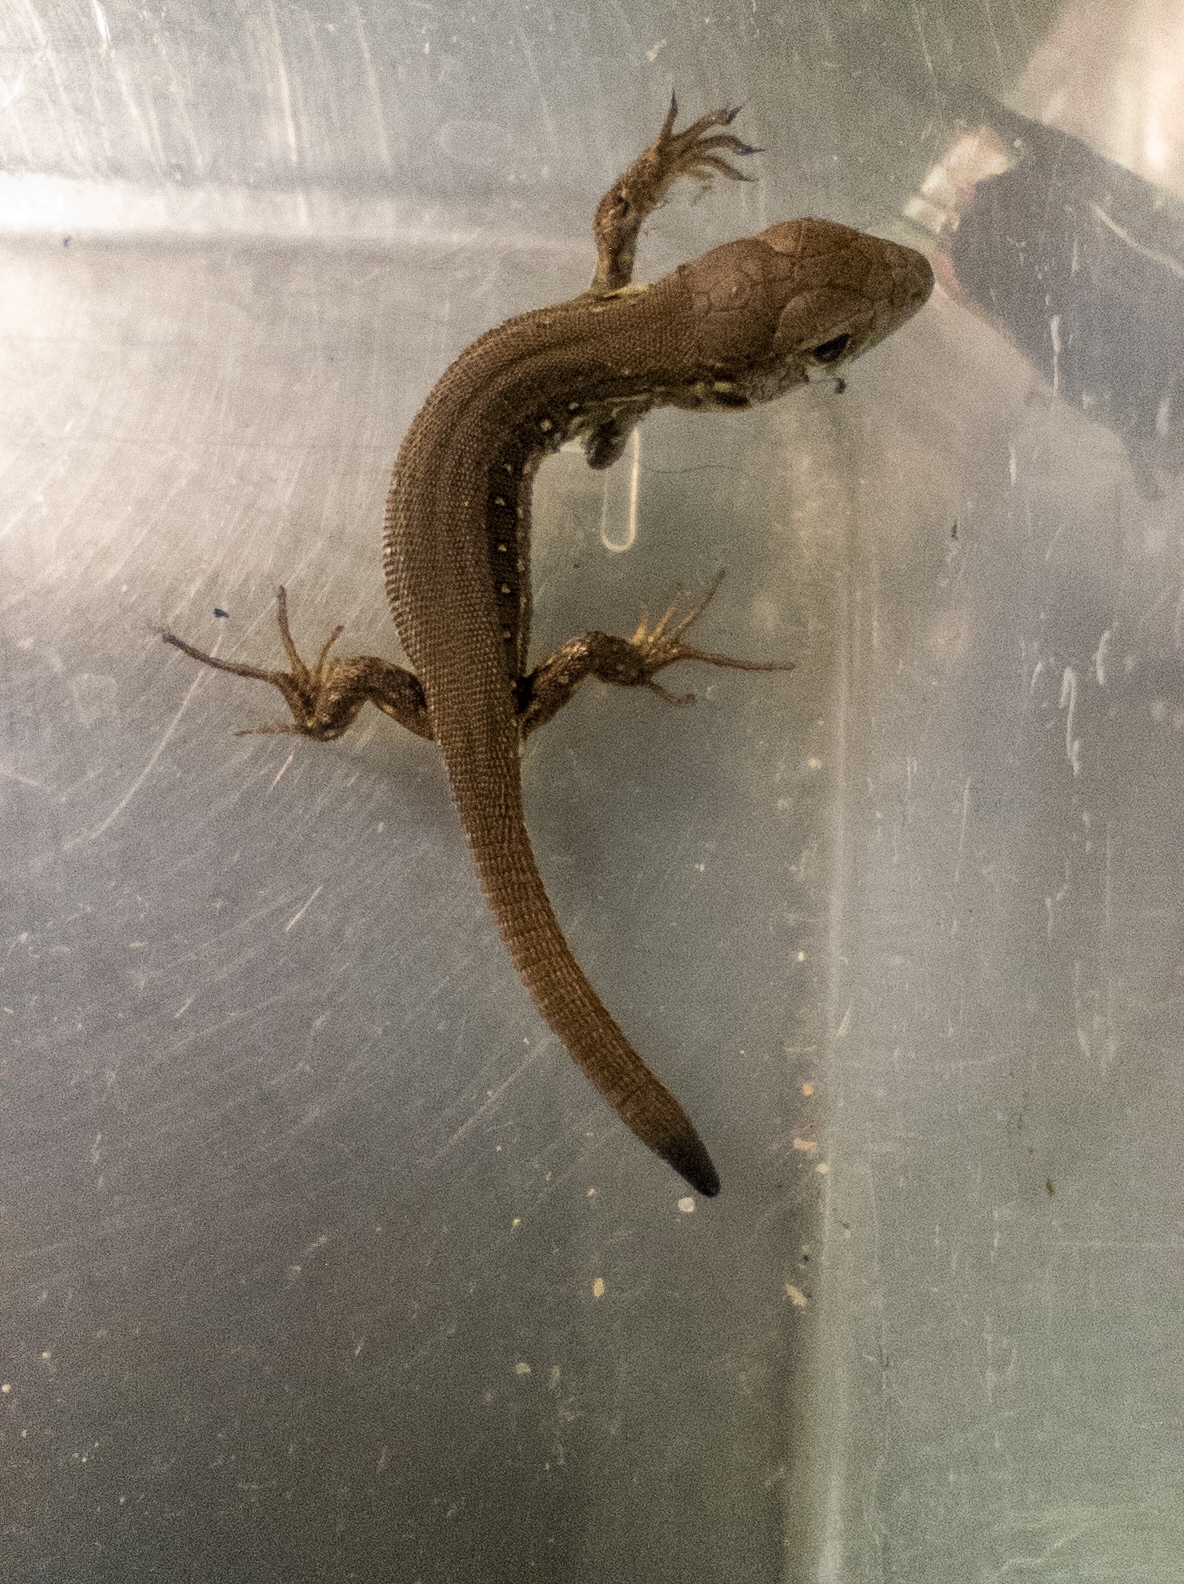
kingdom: Animalia
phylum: Chordata
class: Squamata
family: Lacertidae
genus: Lacerta
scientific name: Lacerta agilis
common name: Sand lizard
